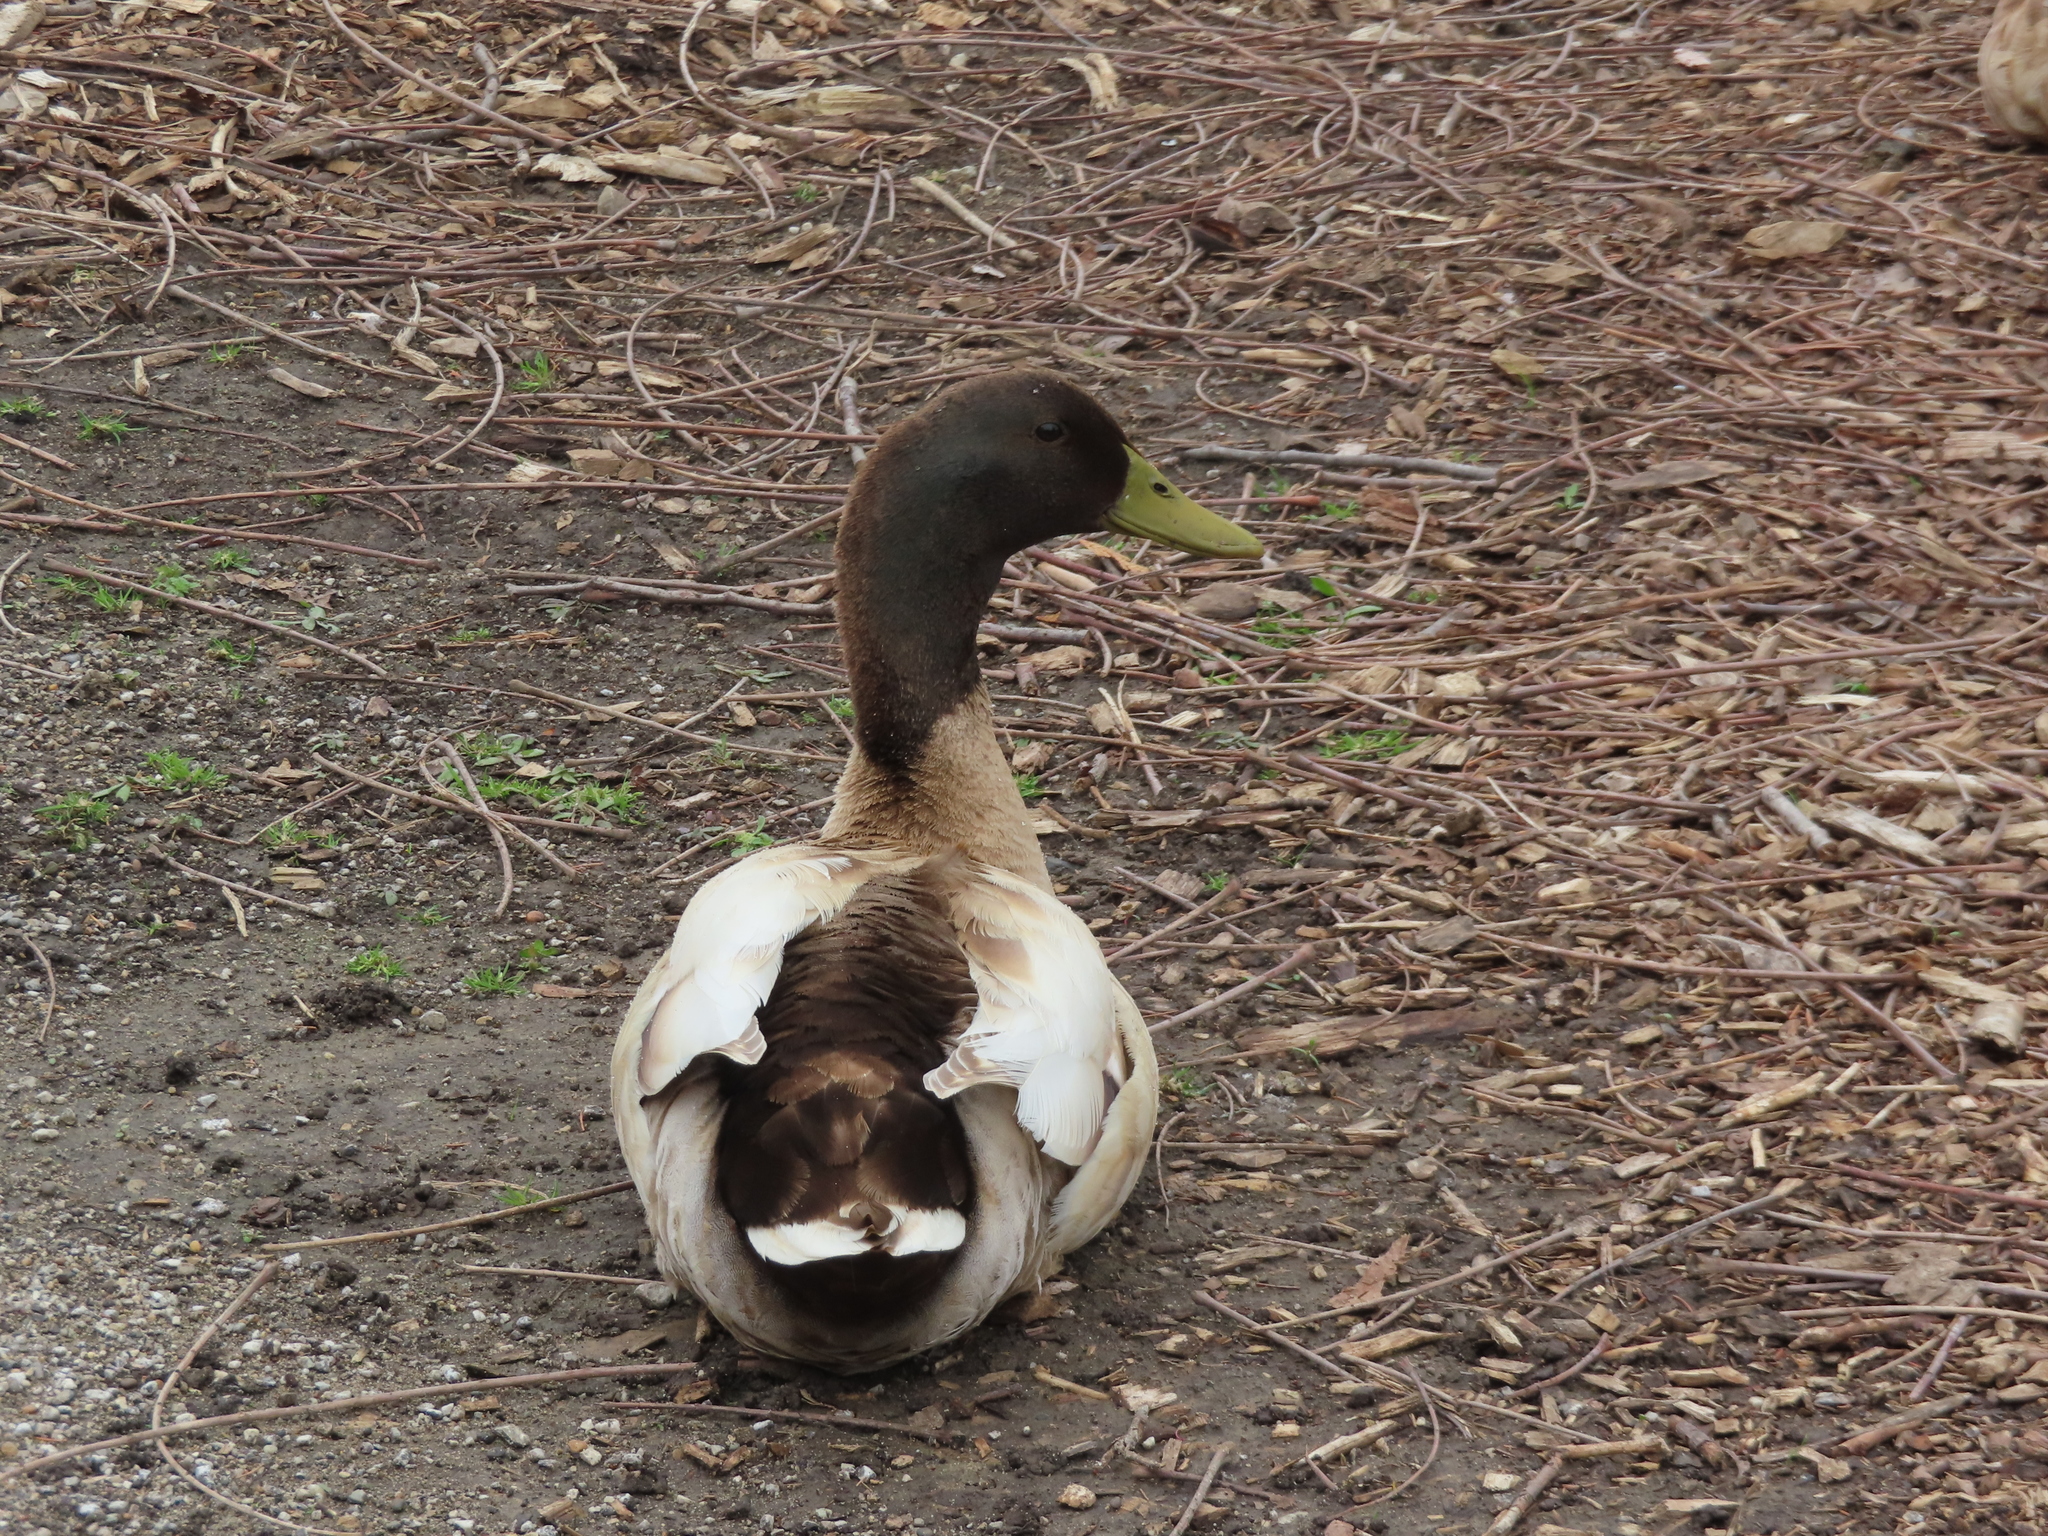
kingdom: Animalia
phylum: Chordata
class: Aves
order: Anseriformes
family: Anatidae
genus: Anas
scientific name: Anas platyrhynchos
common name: Mallard
